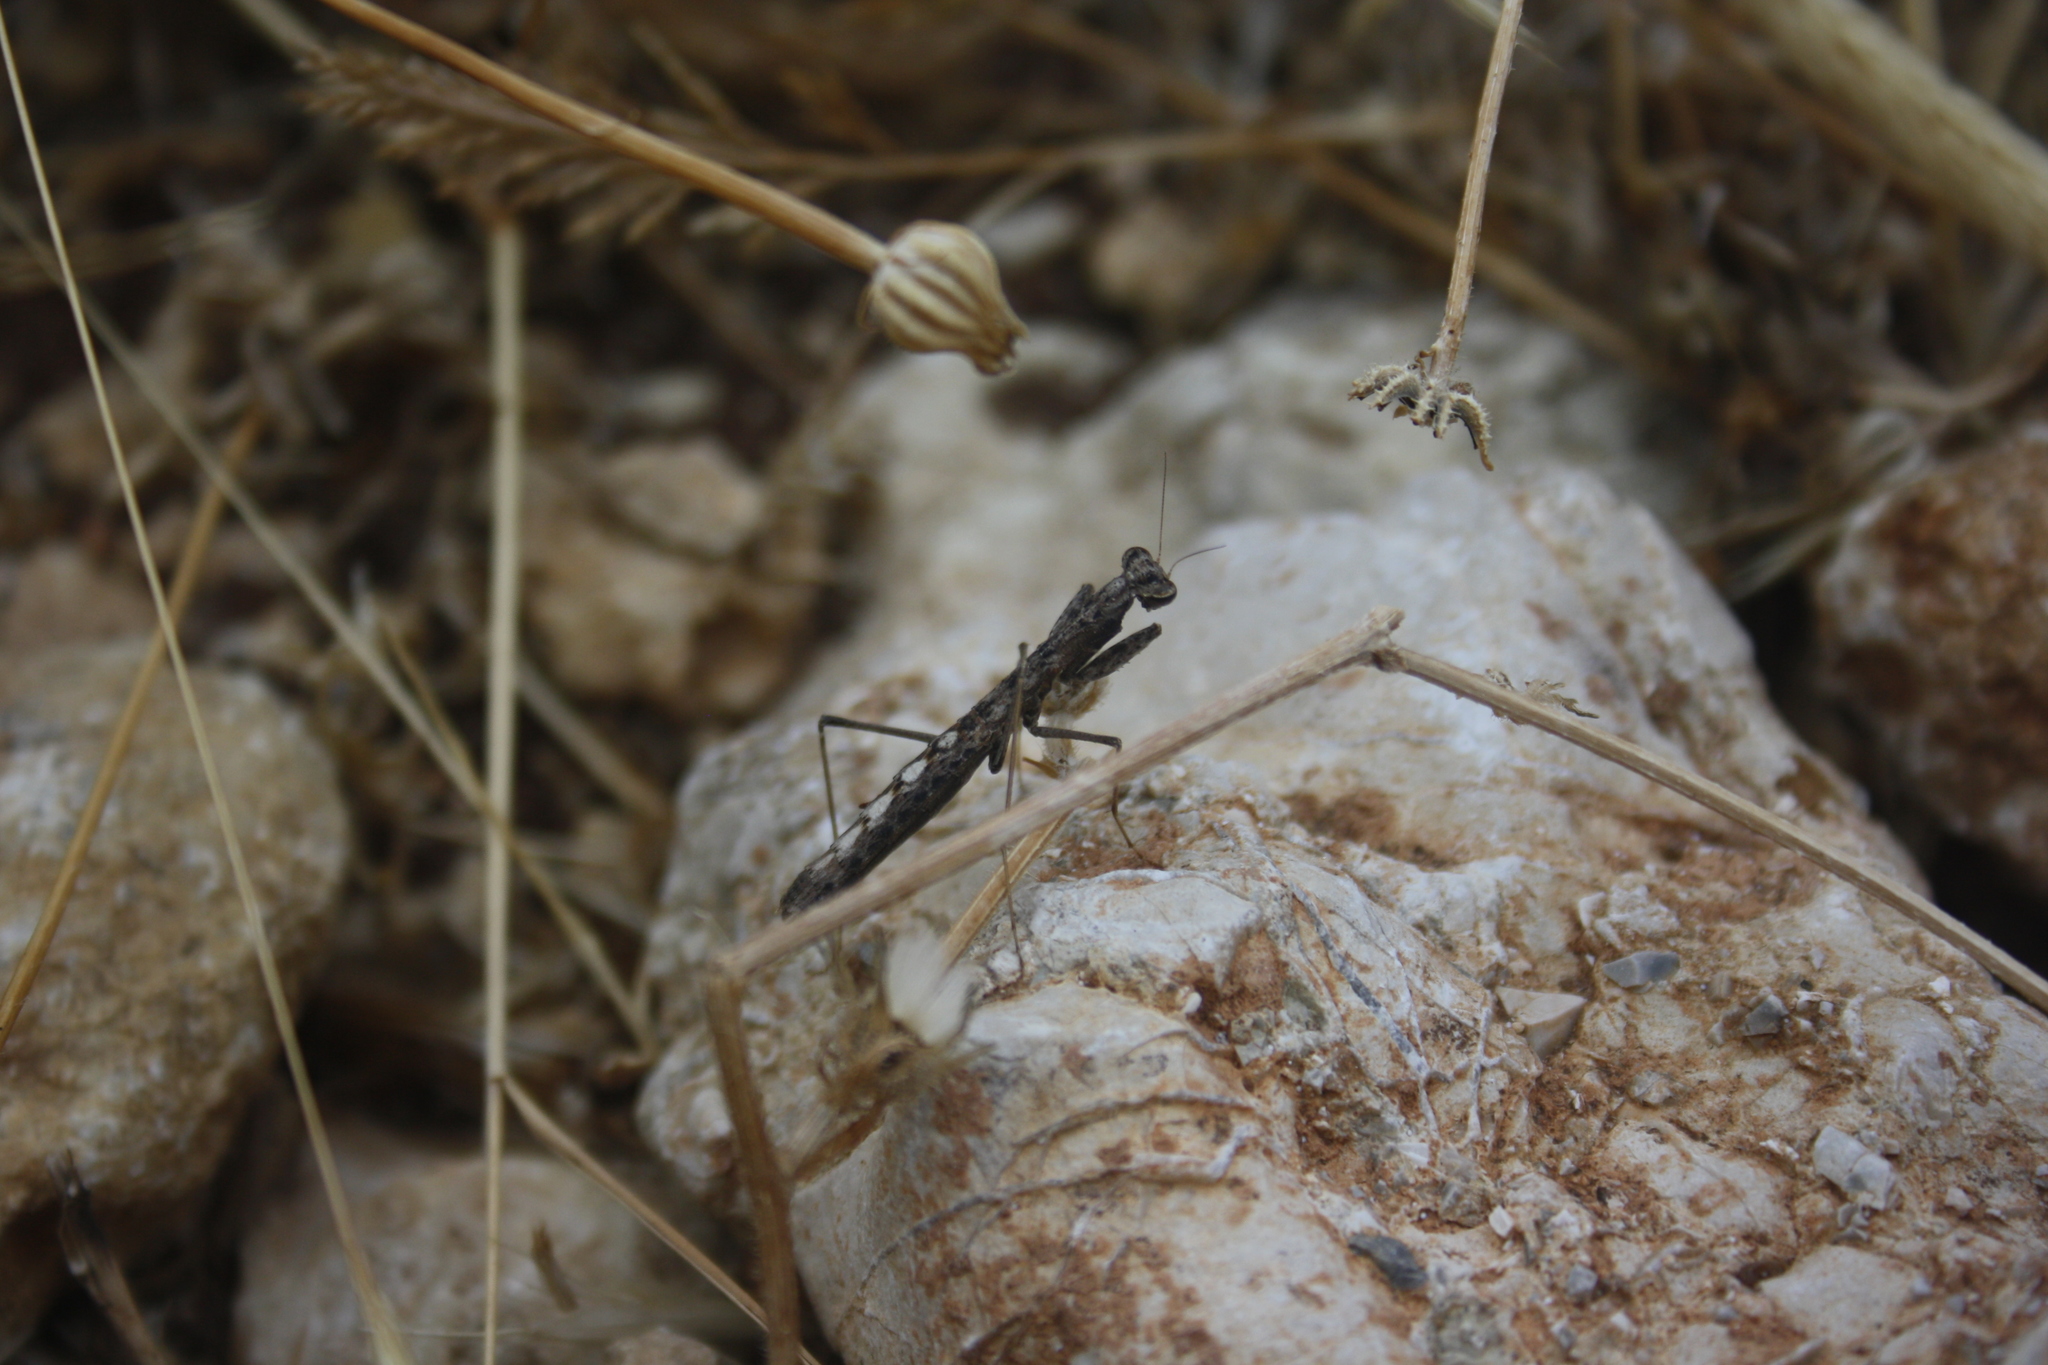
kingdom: Animalia
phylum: Arthropoda
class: Insecta
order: Mantodea
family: Rivetinidae
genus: Geomantis
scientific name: Geomantis larvoides
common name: Wingless ground mantis
